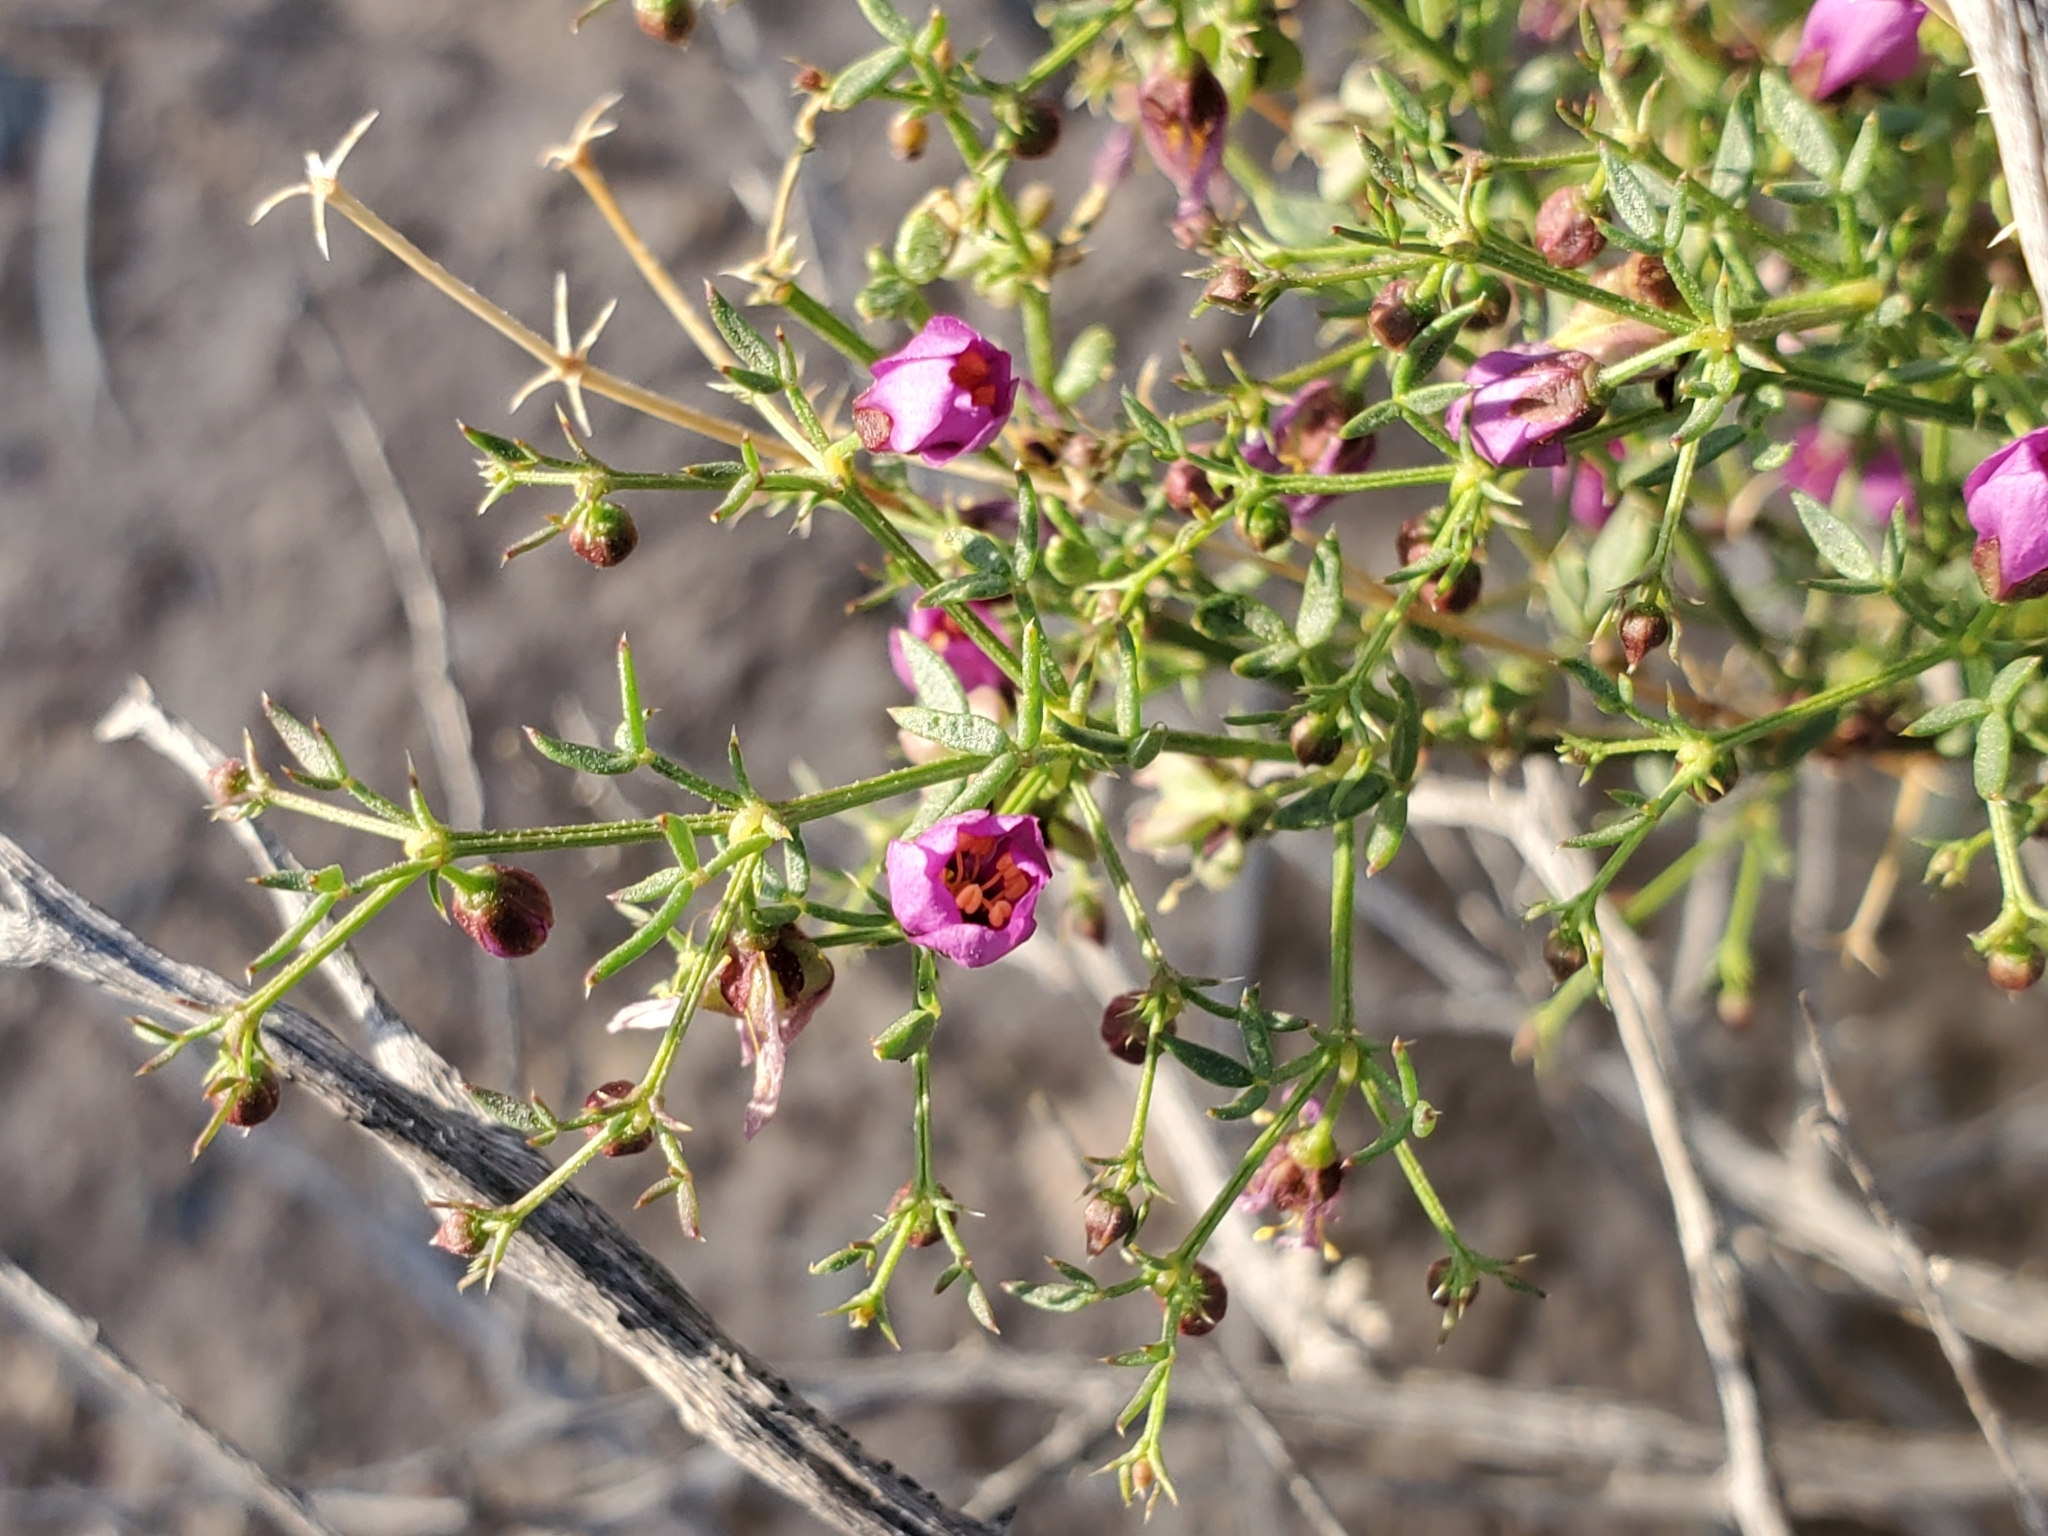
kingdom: Plantae
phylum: Tracheophyta
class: Magnoliopsida
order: Zygophyllales
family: Zygophyllaceae
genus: Fagonia
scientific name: Fagonia laevis
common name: California fagonbush
